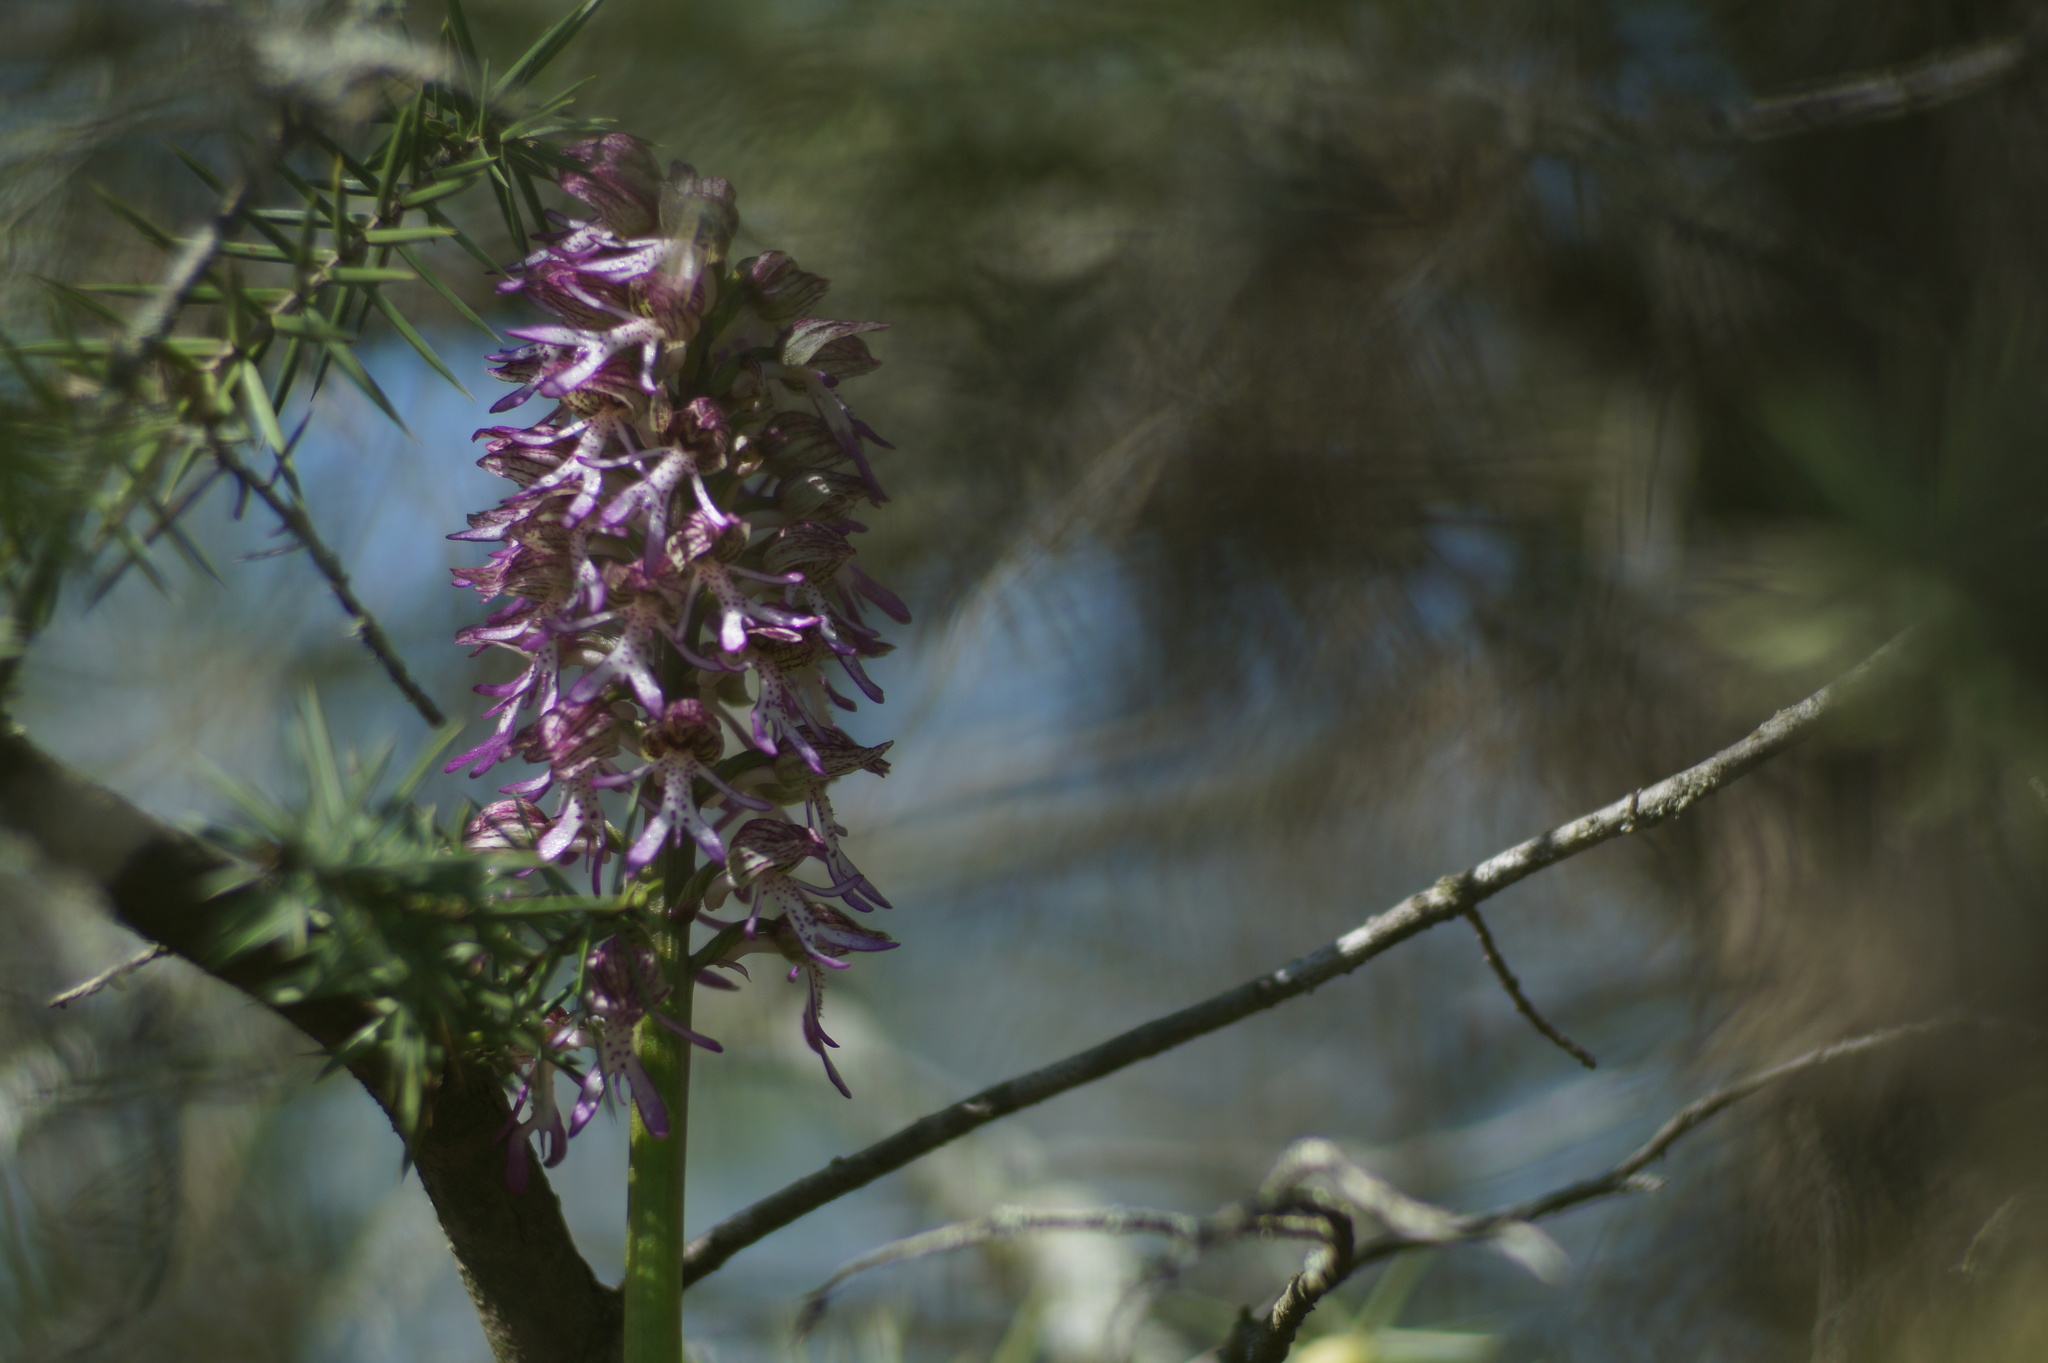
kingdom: Plantae
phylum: Tracheophyta
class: Liliopsida
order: Asparagales
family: Orchidaceae
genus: Orchis
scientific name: Orchis angusticruris
